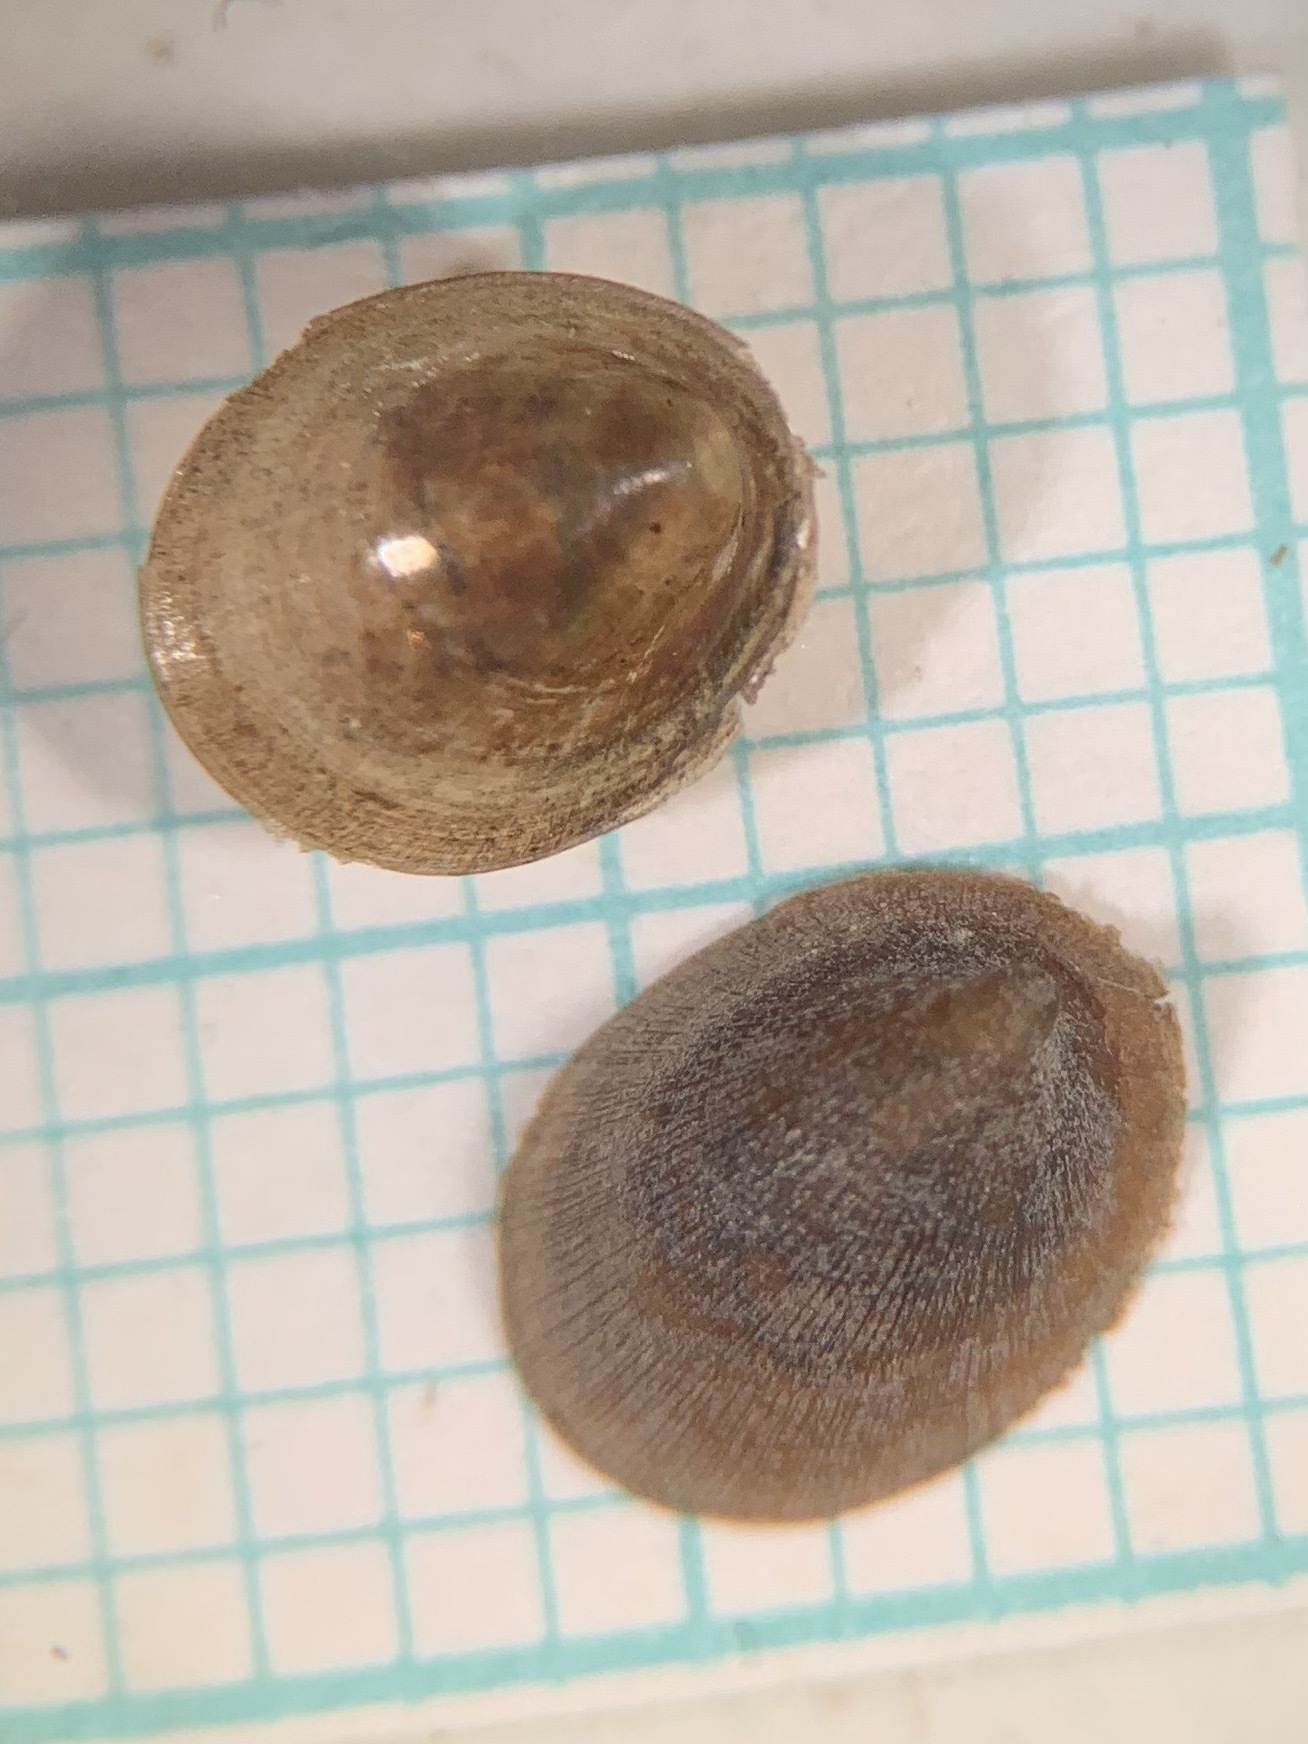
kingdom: Animalia
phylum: Mollusca
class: Gastropoda
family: Planorbidae
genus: Ancylus
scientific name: Ancylus fluviatilis
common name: River limpet
